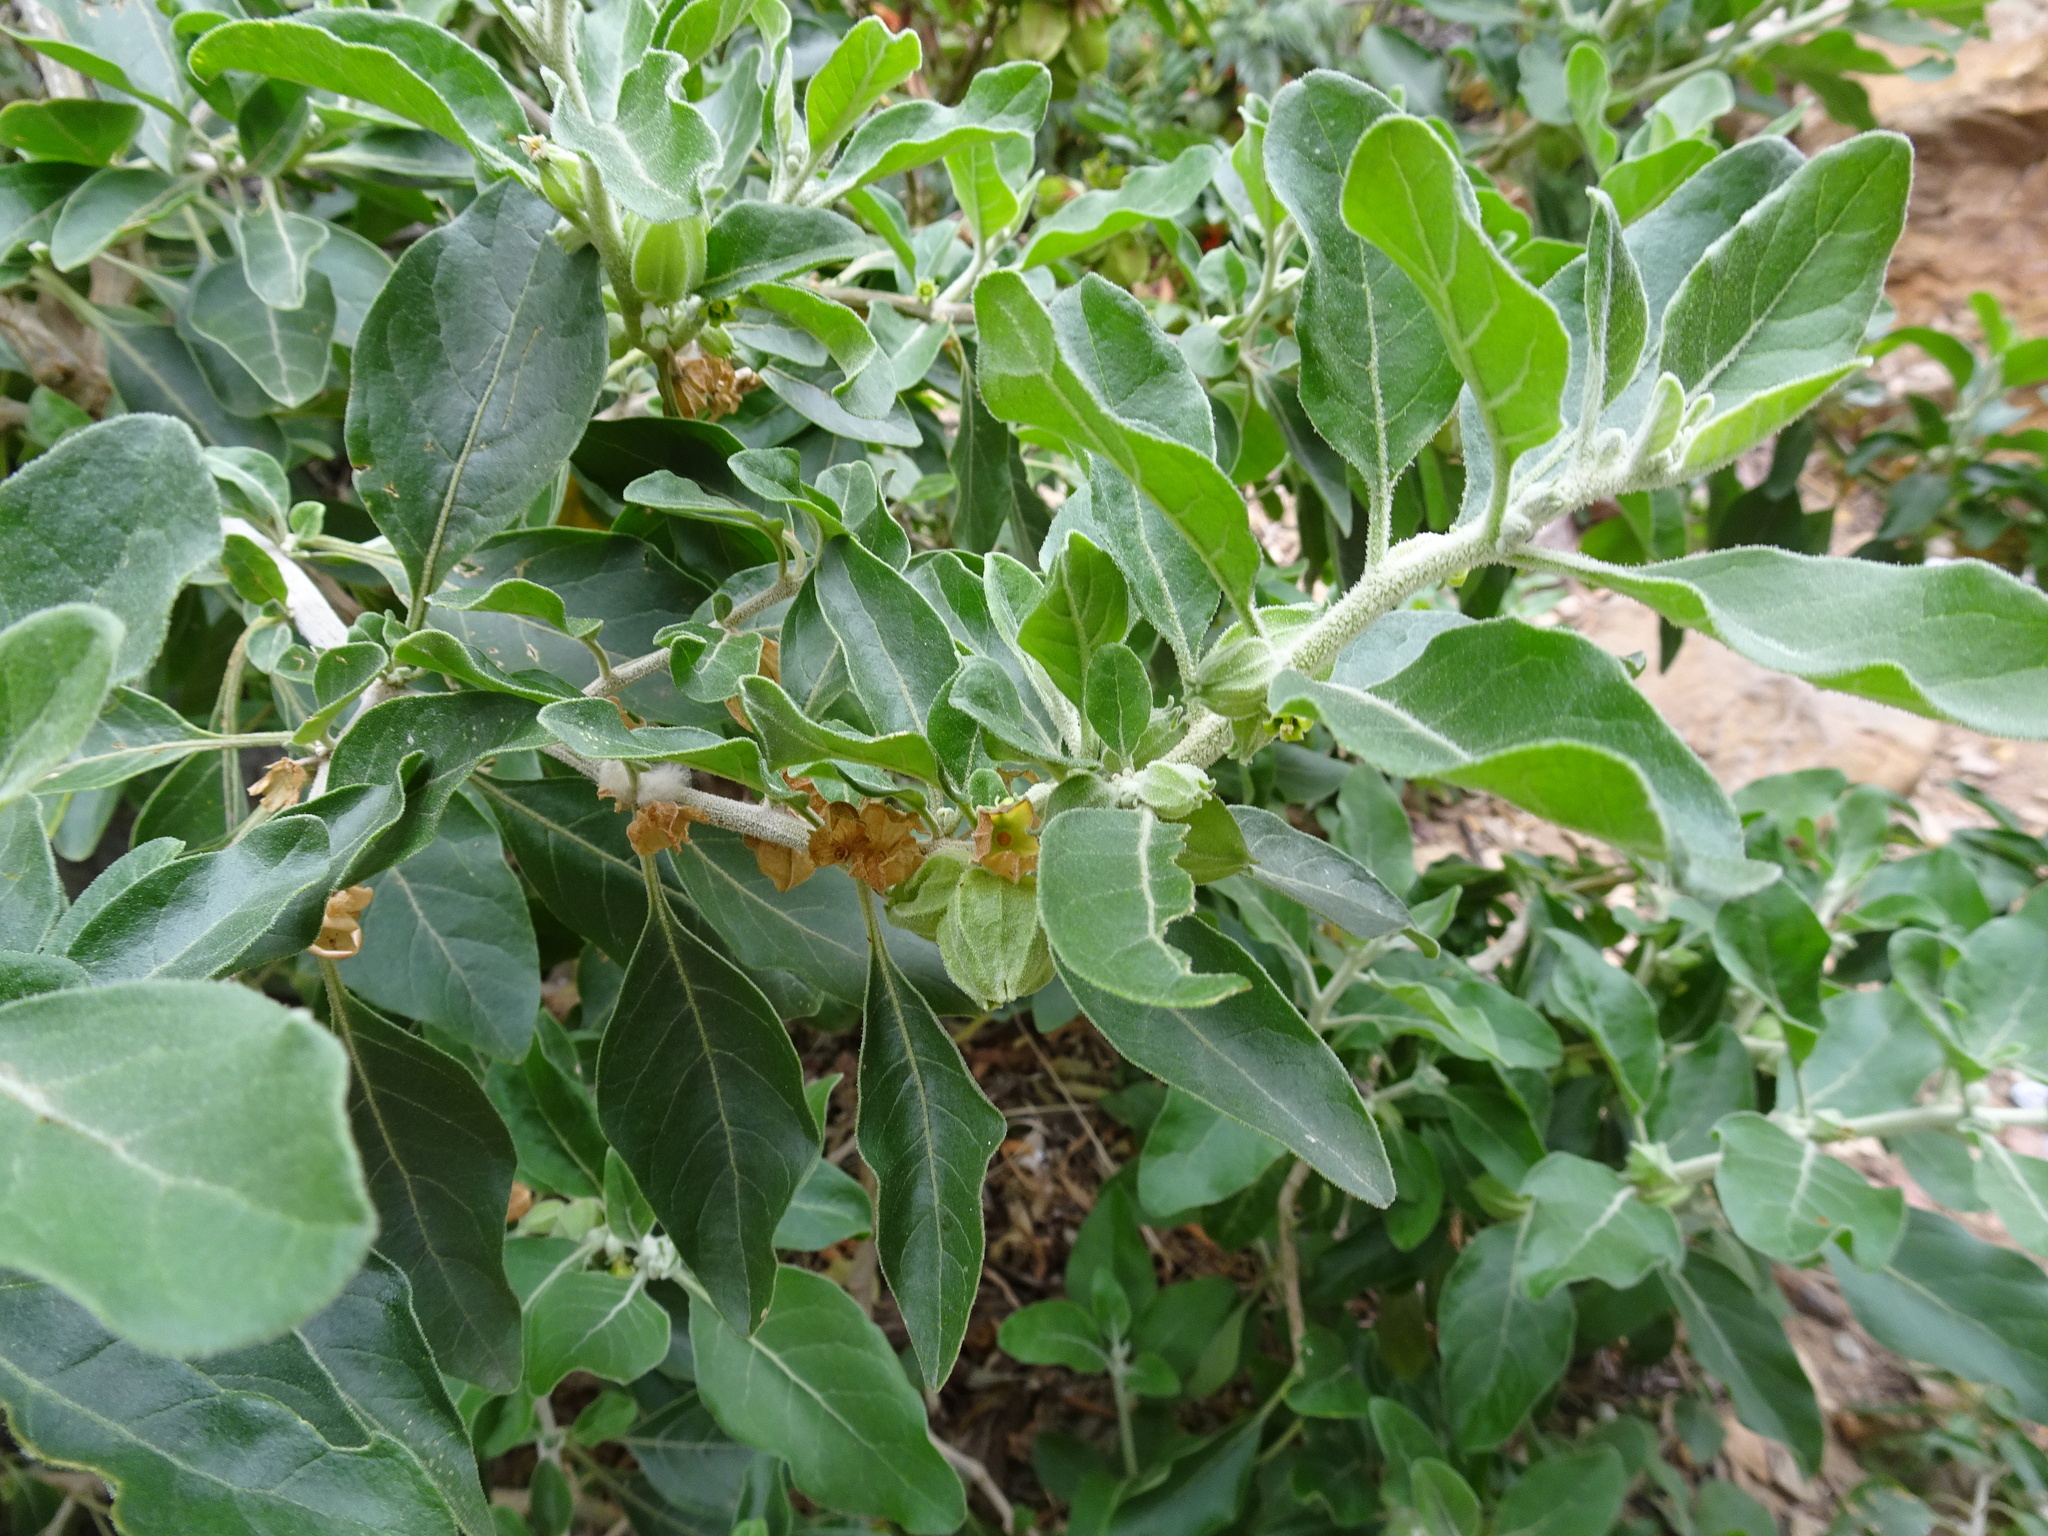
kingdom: Plantae
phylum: Tracheophyta
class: Magnoliopsida
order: Solanales
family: Solanaceae
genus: Withania
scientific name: Withania somnifera
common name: Winter-cherry
